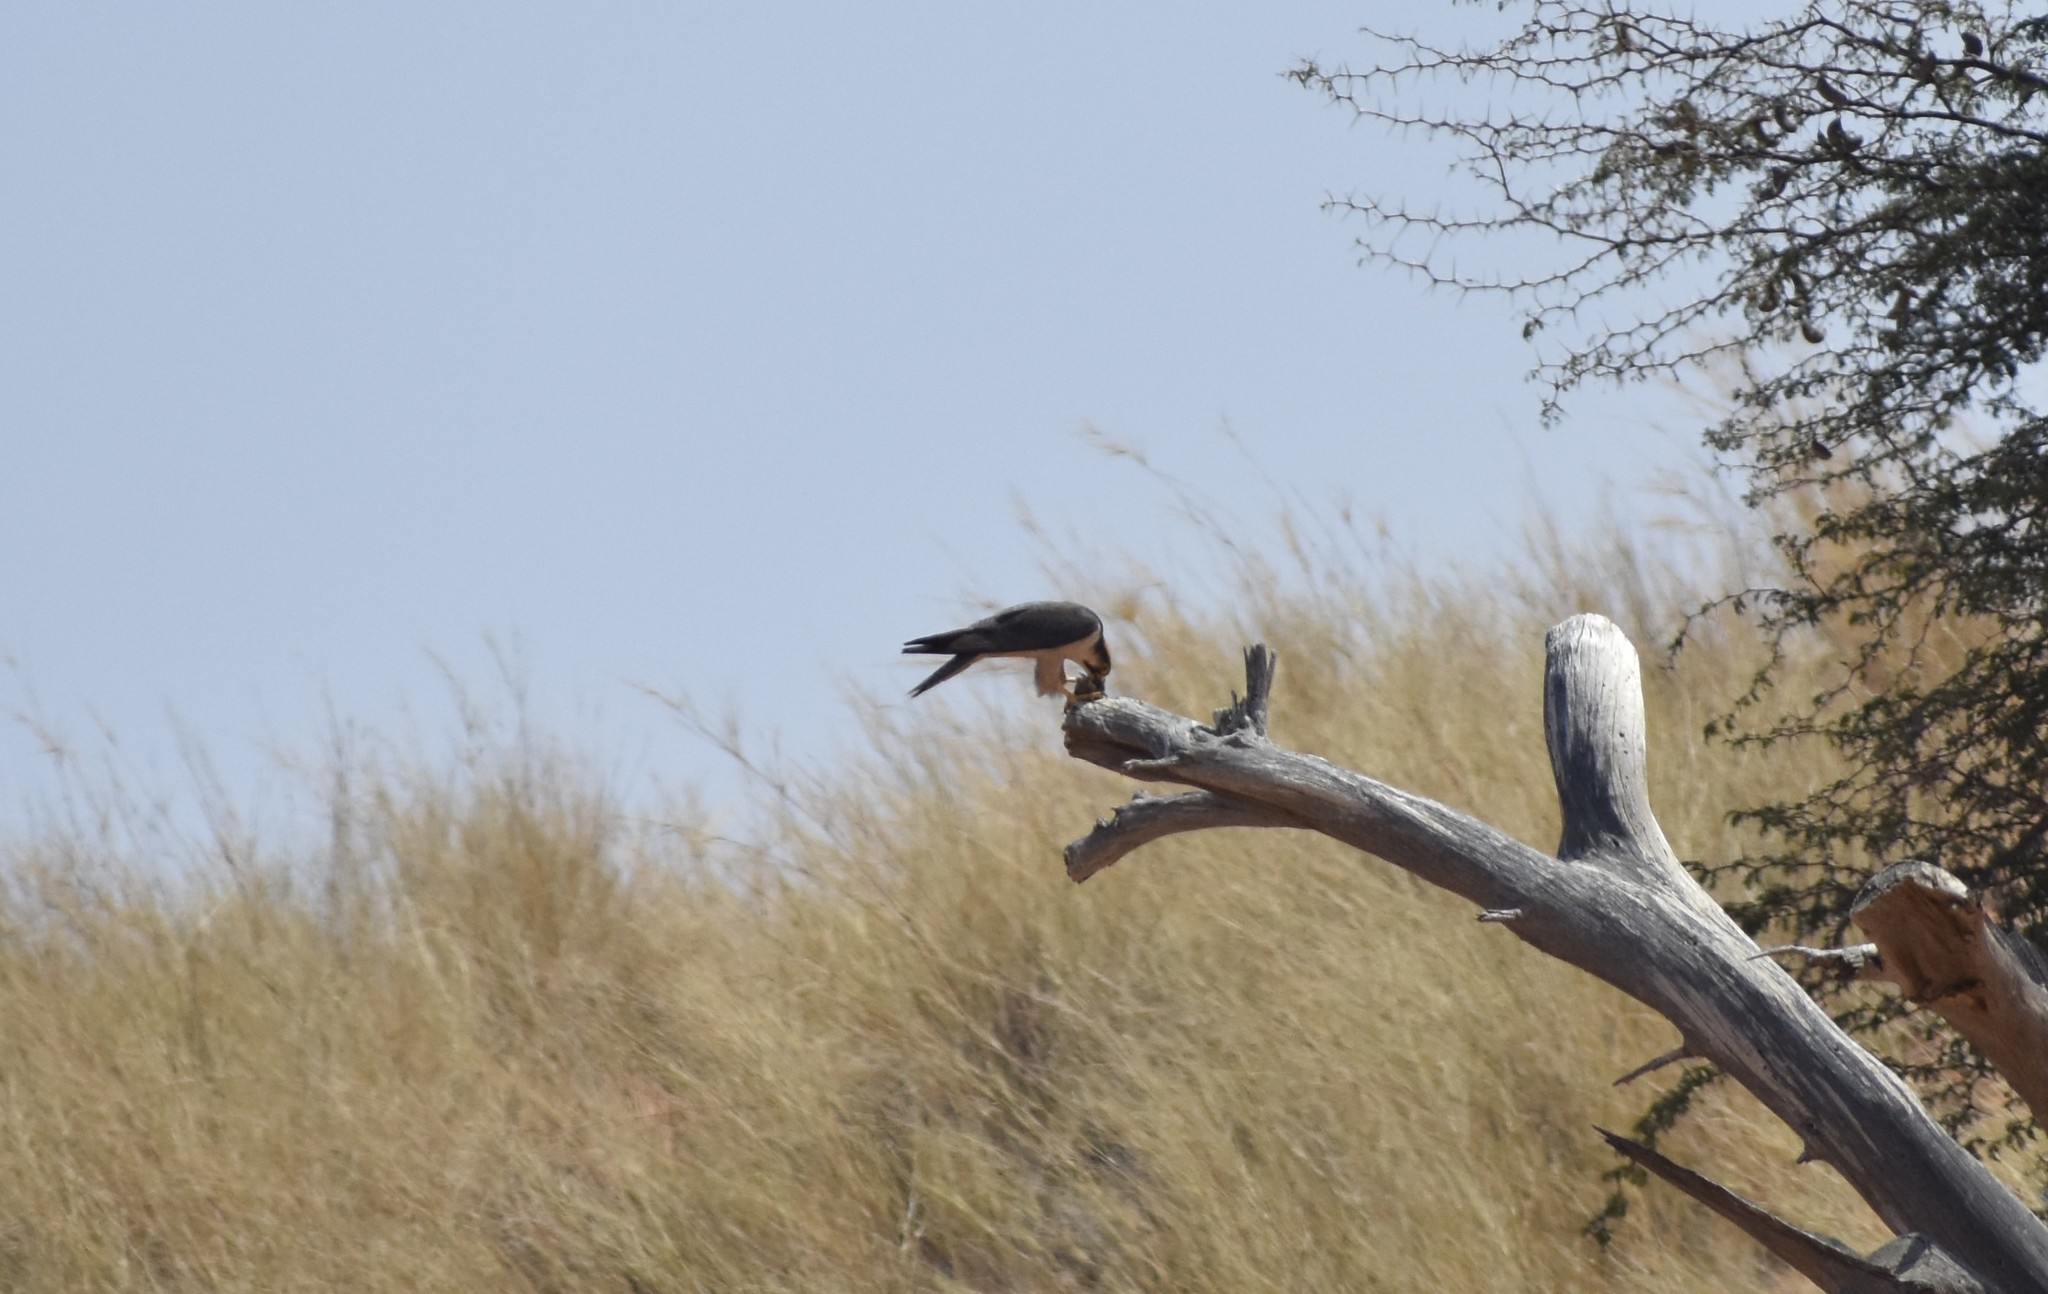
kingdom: Animalia
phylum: Chordata
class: Aves
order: Falconiformes
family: Falconidae
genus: Falco
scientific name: Falco biarmicus
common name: Lanner falcon
